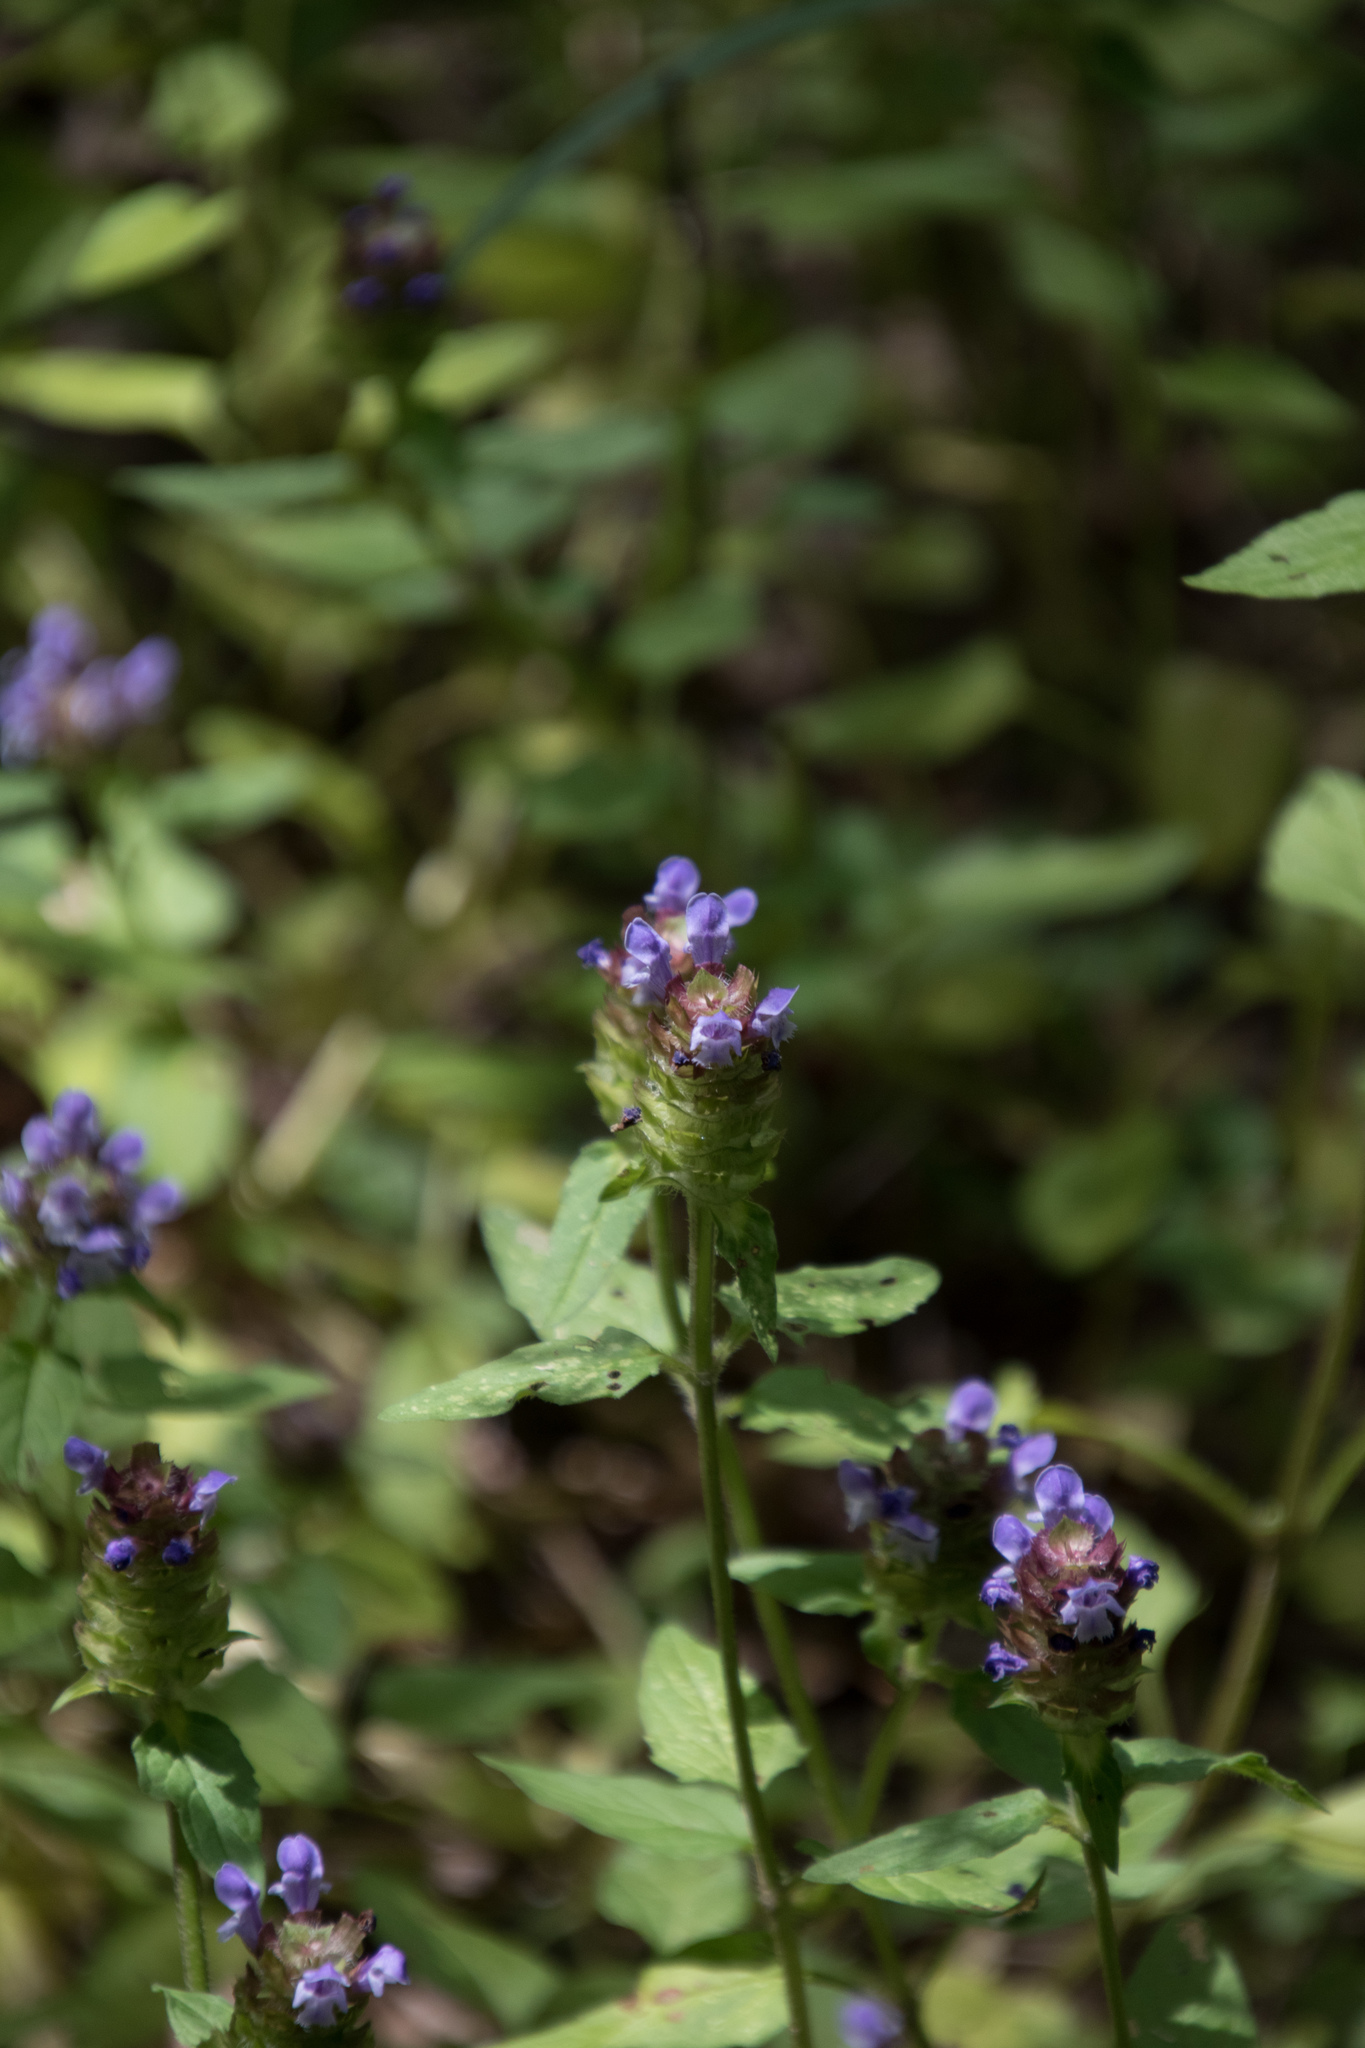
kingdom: Plantae
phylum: Tracheophyta
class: Magnoliopsida
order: Lamiales
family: Lamiaceae
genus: Prunella
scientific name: Prunella vulgaris
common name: Heal-all
